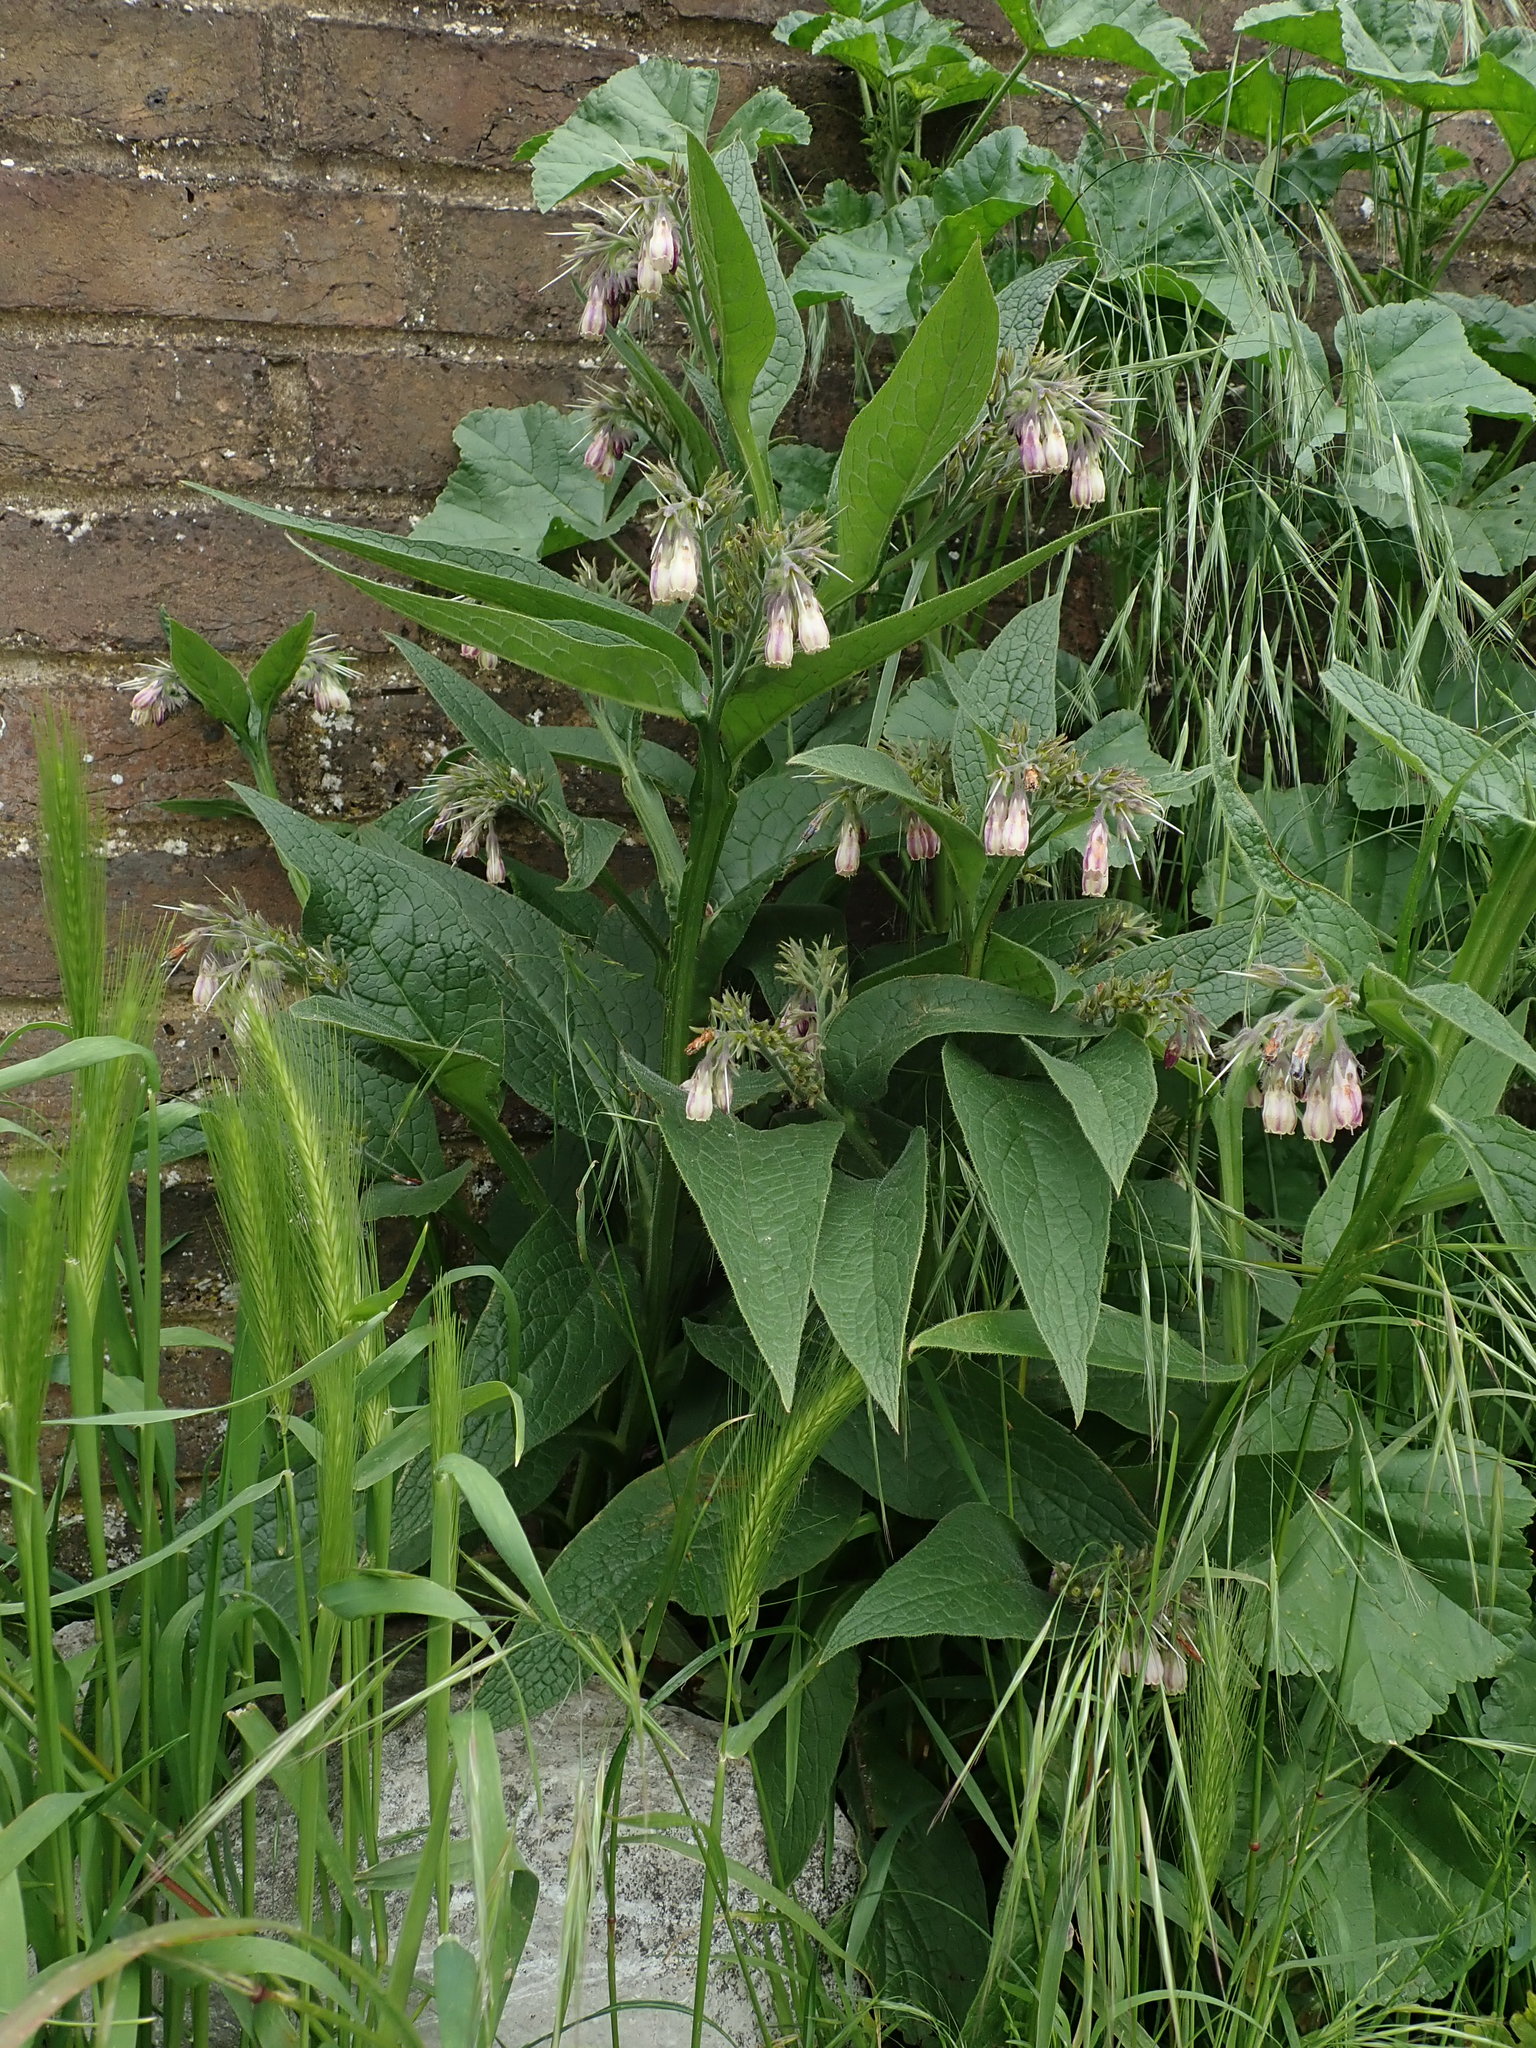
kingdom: Plantae
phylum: Tracheophyta
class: Magnoliopsida
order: Boraginales
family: Boraginaceae
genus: Symphytum
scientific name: Symphytum officinale
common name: Common comfrey
